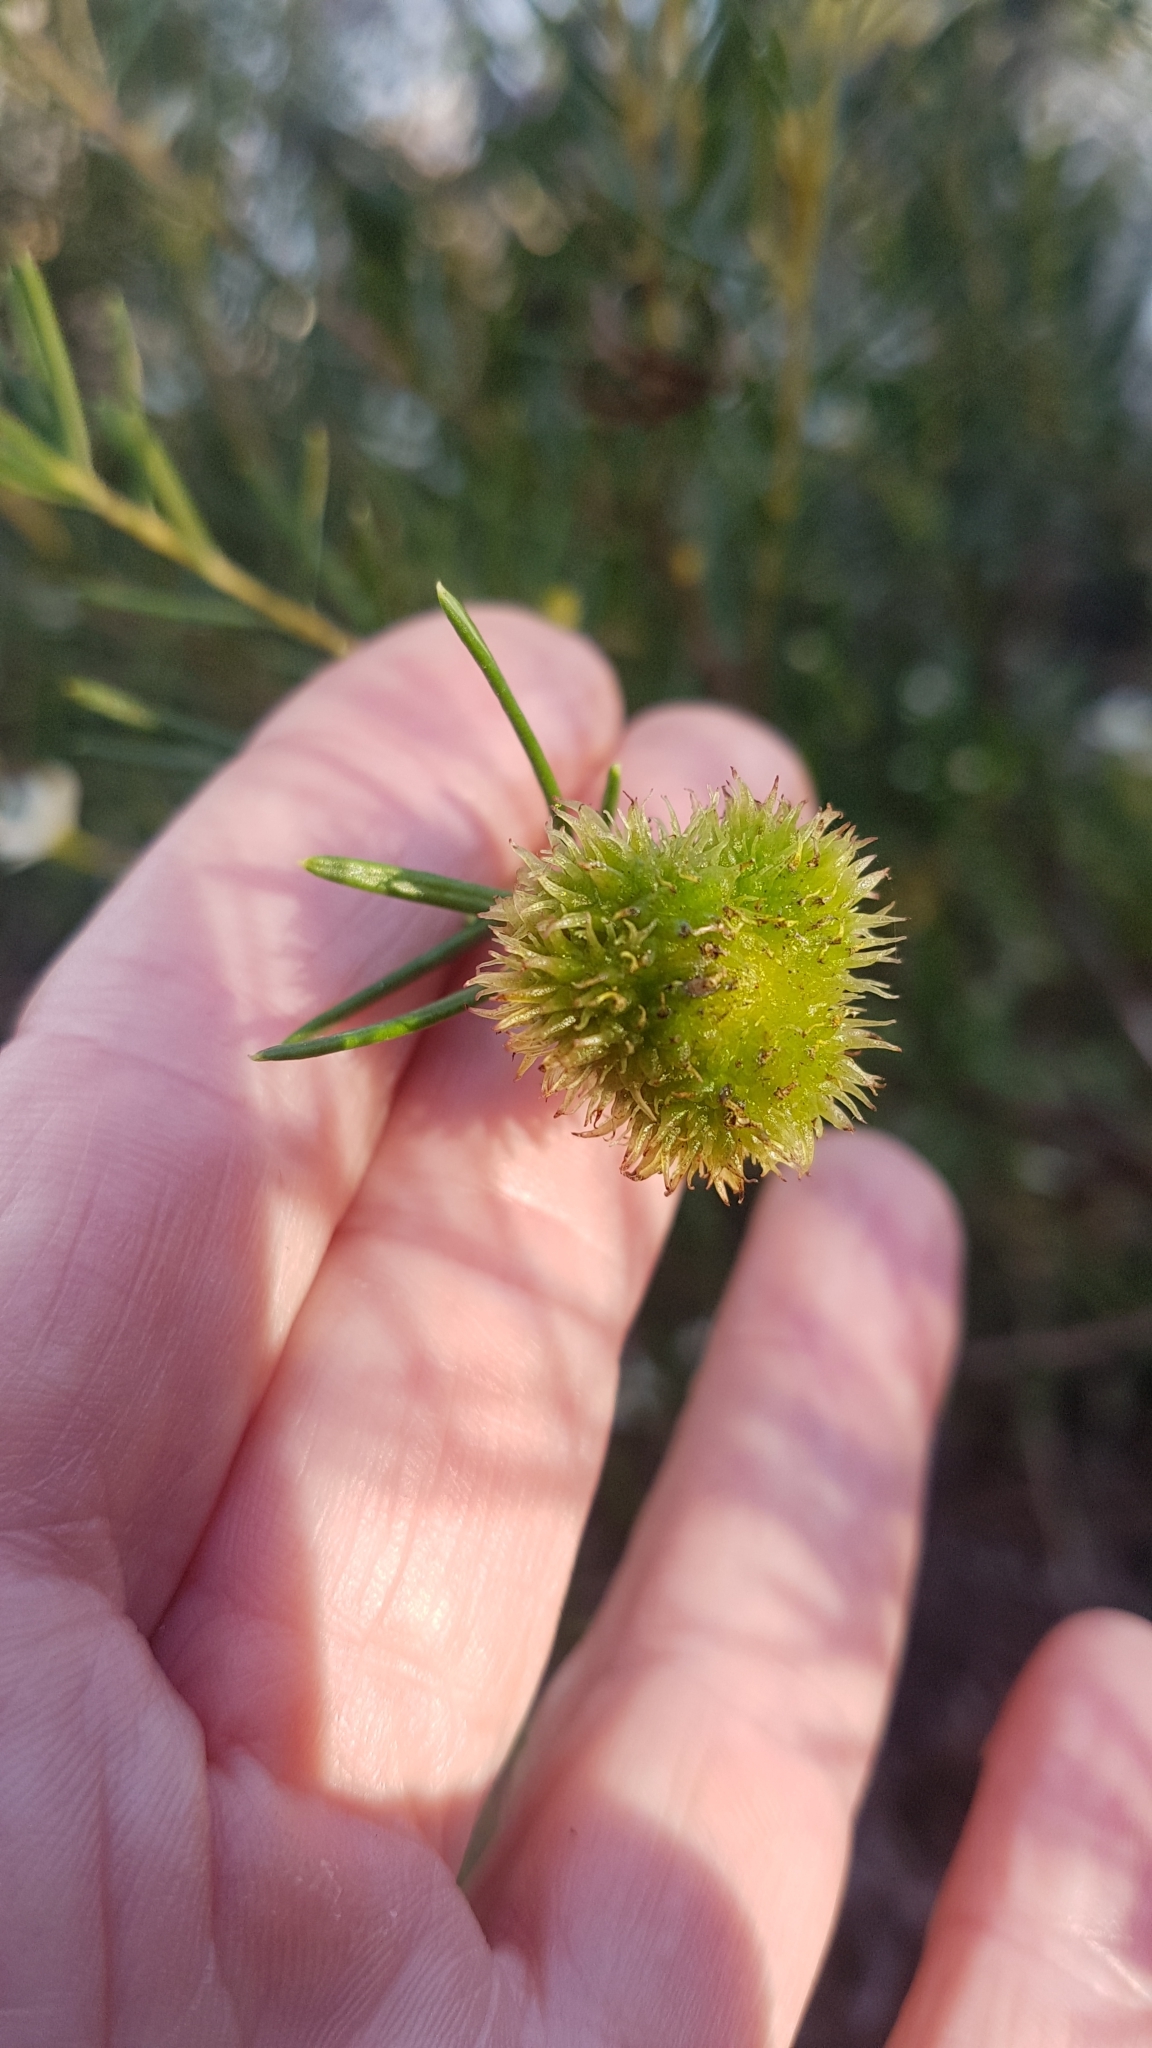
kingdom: Plantae
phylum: Tracheophyta
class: Magnoliopsida
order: Malpighiales
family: Euphorbiaceae
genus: Ricinocarpos
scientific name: Ricinocarpos pinifolius
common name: Weddingbush
